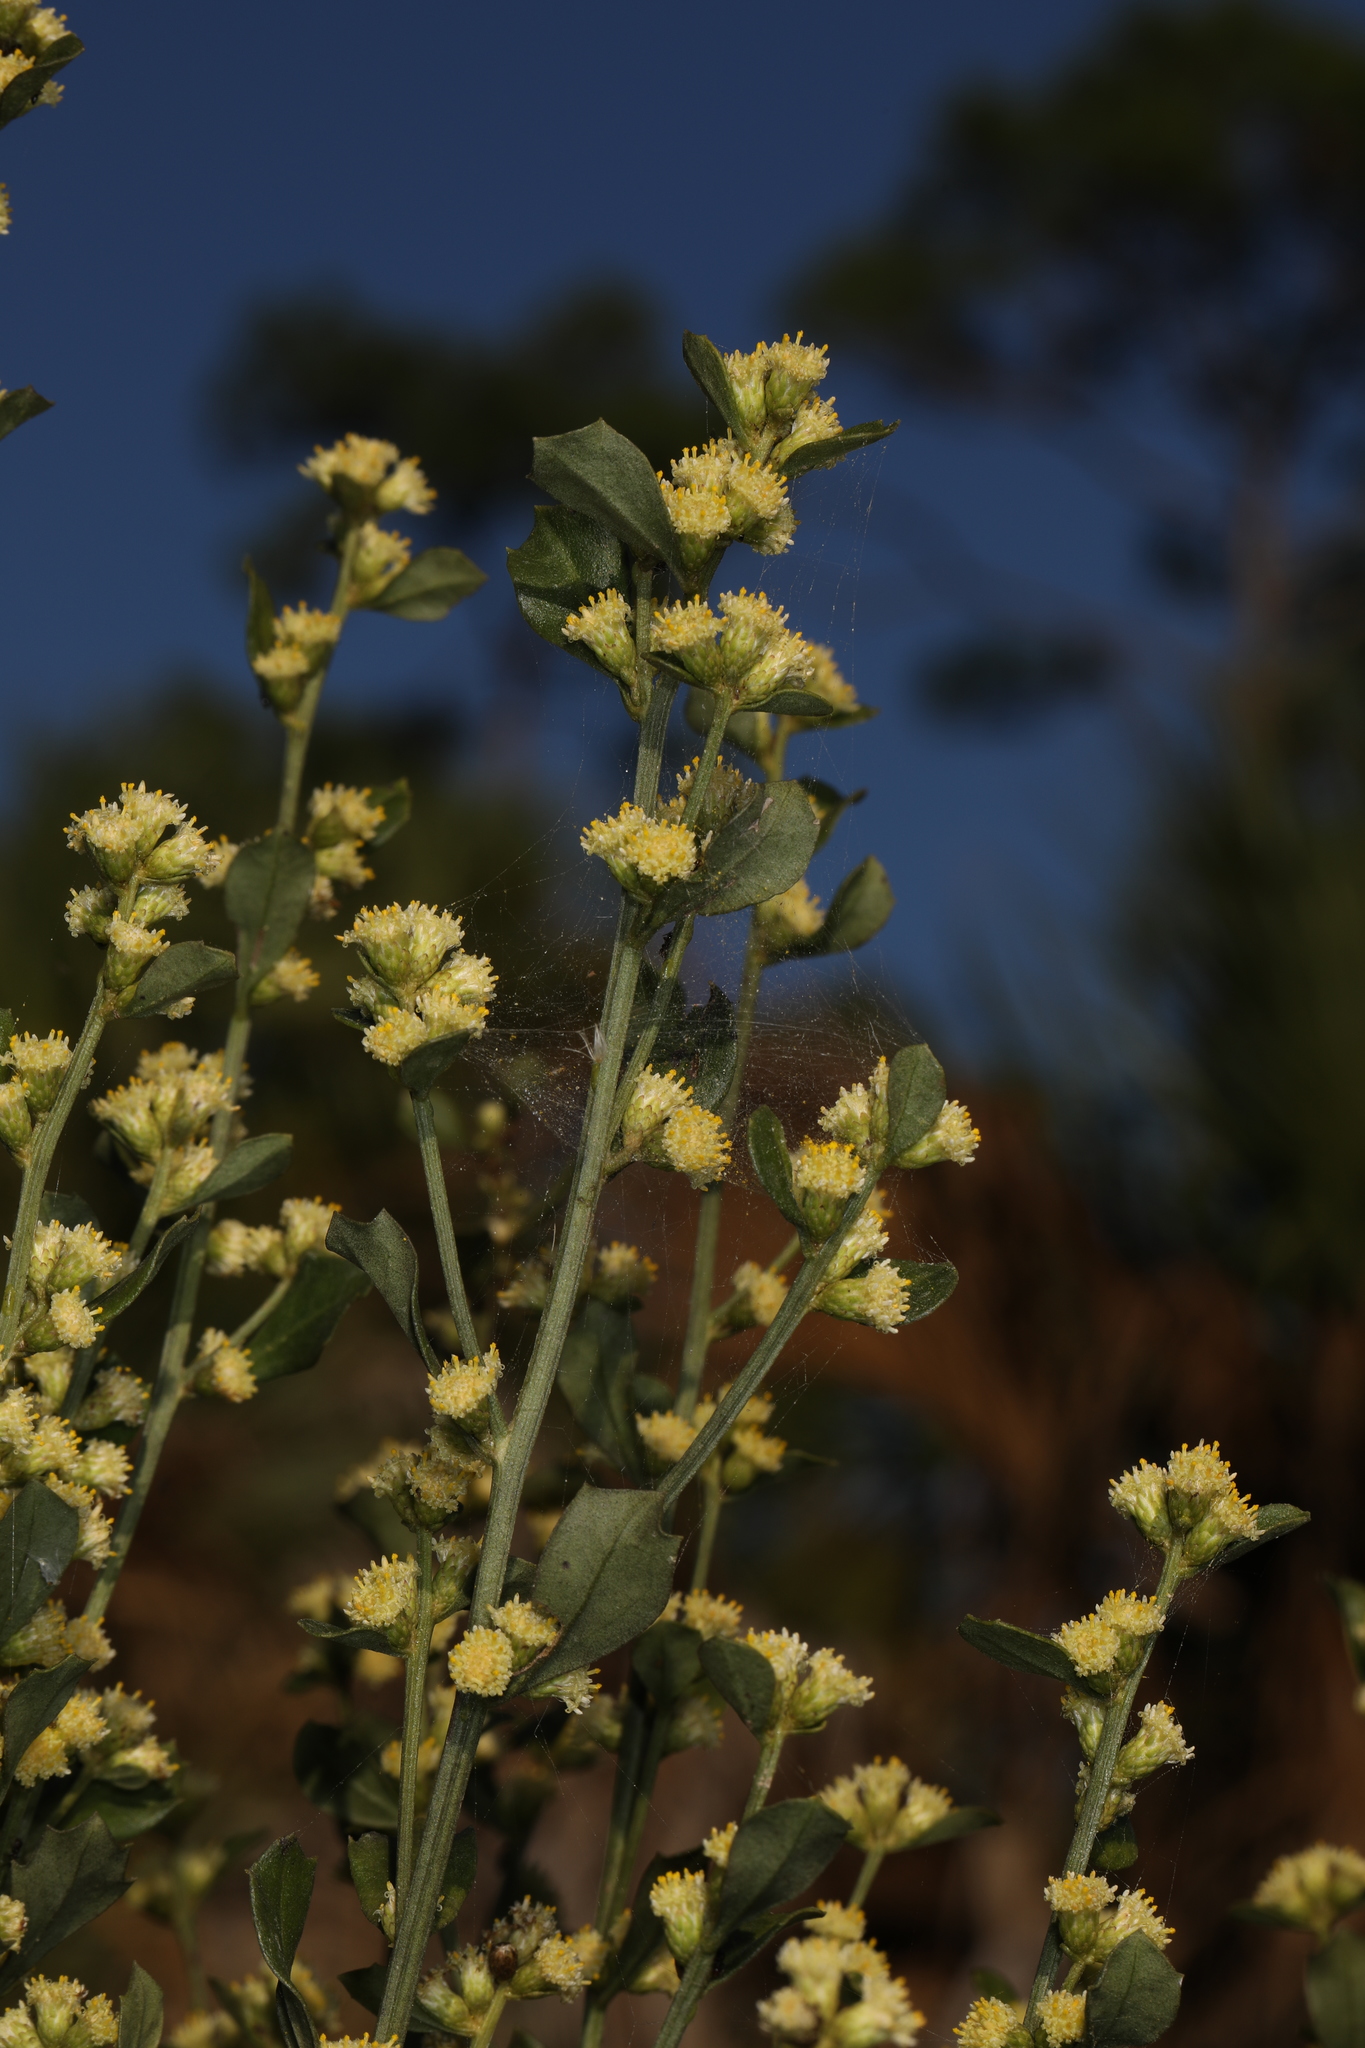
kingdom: Plantae
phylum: Tracheophyta
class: Magnoliopsida
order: Asterales
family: Asteraceae
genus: Baccharis
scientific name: Baccharis glomeruliflora
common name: Silverling groundsel bush
